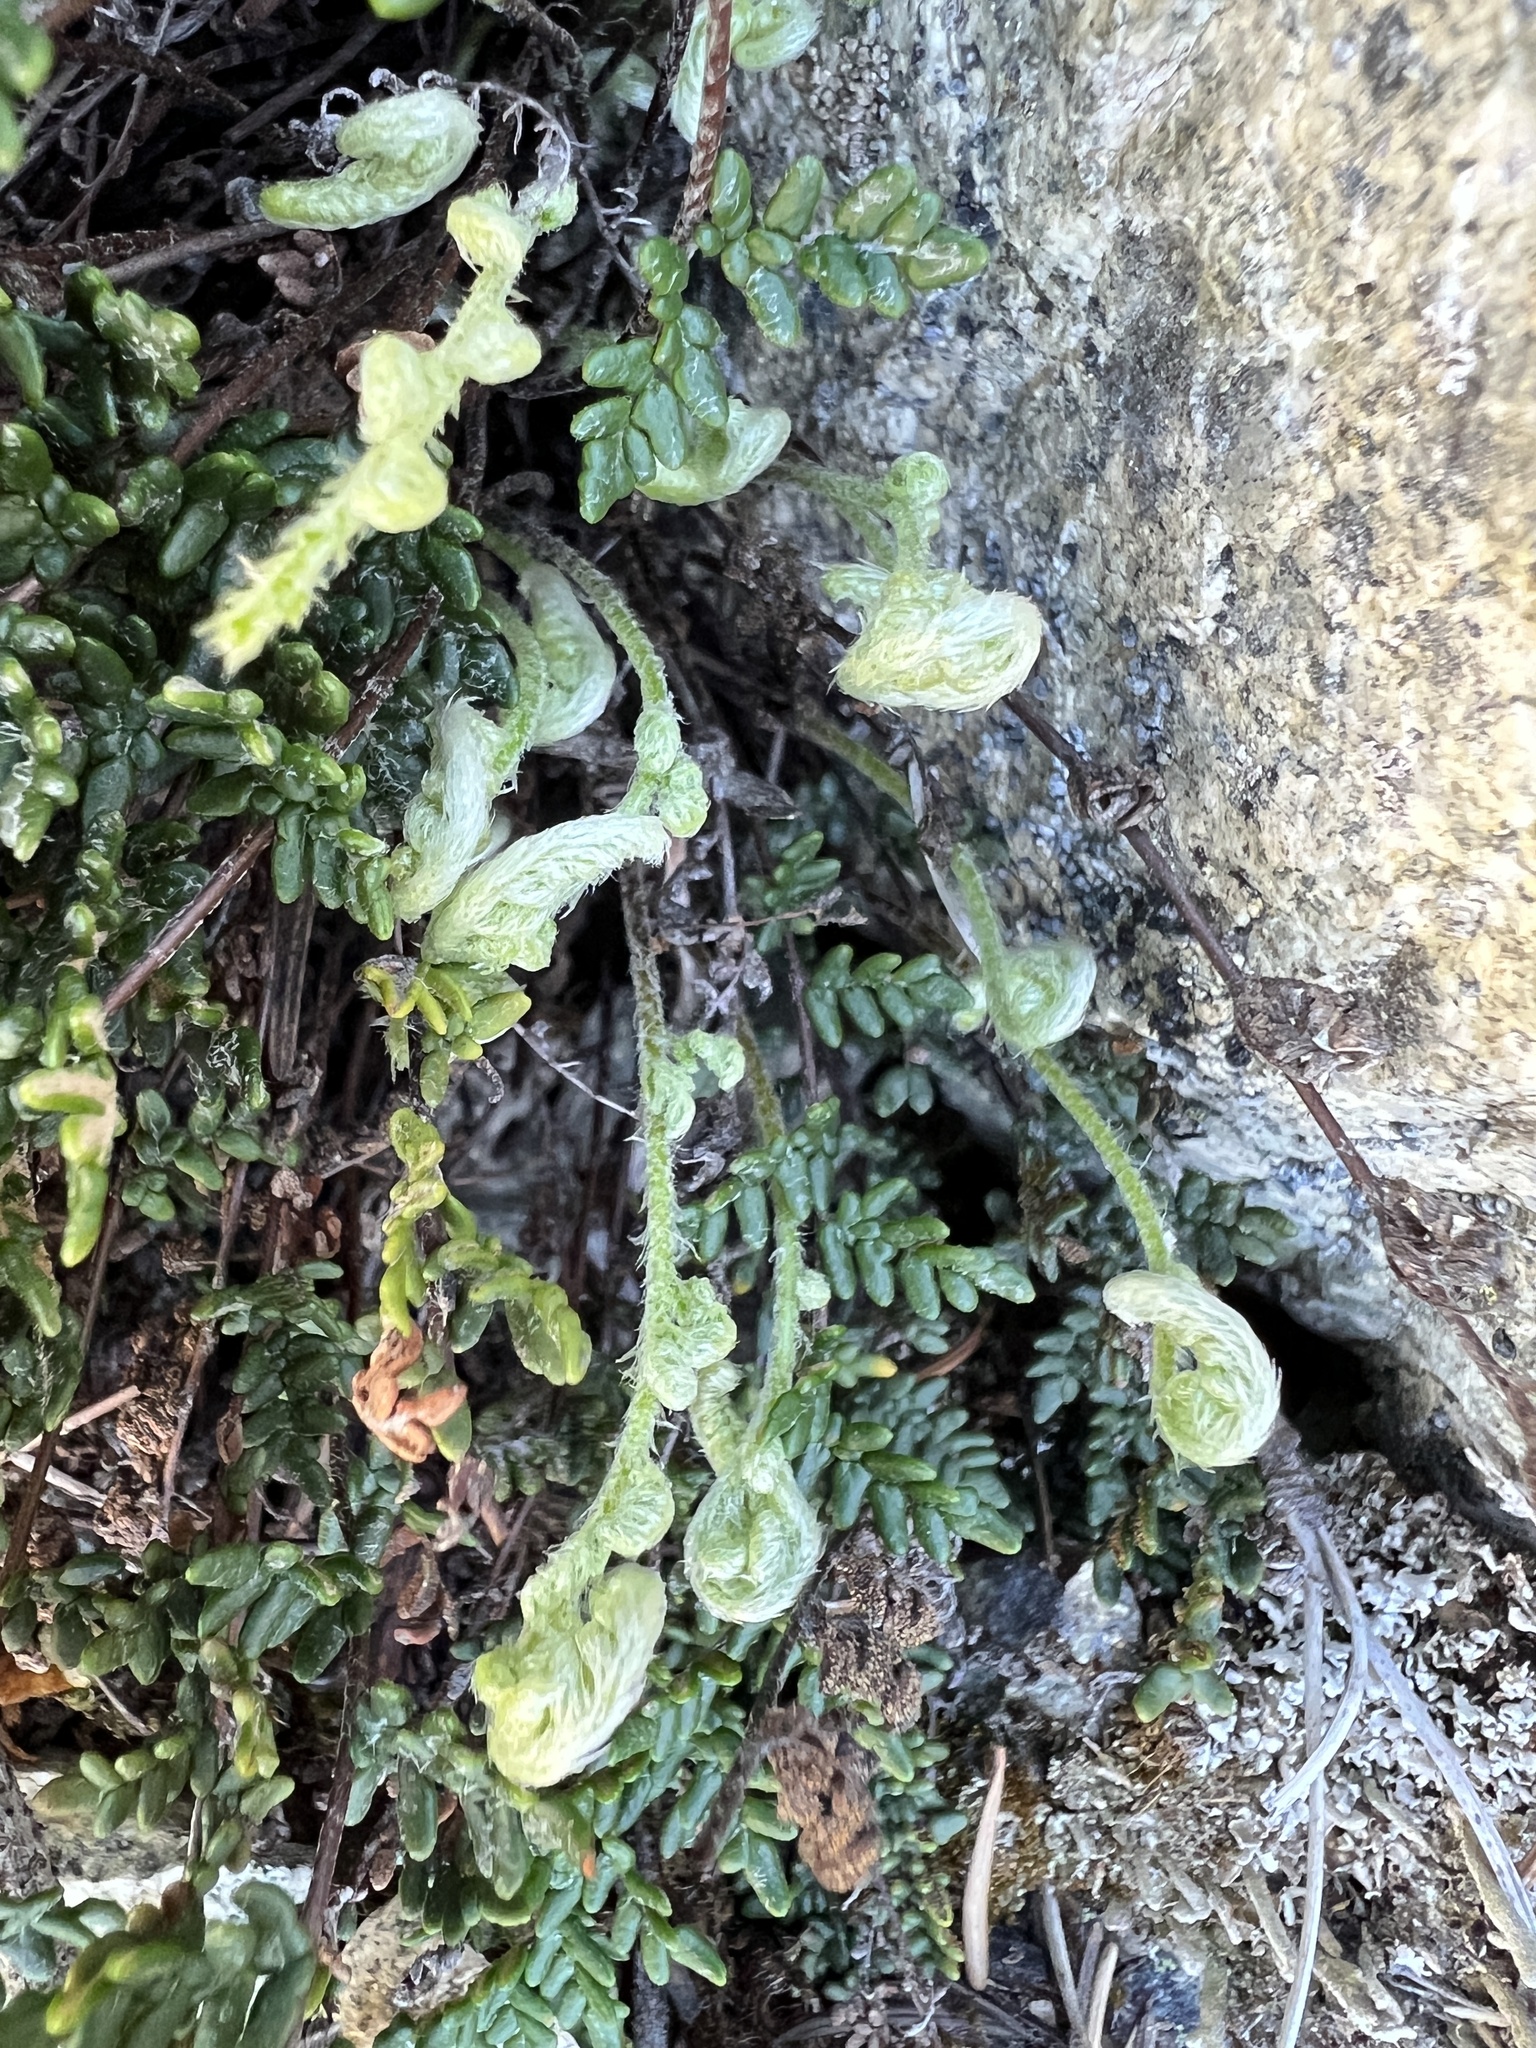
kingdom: Plantae
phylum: Tracheophyta
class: Polypodiopsida
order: Polypodiales
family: Pteridaceae
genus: Myriopteris
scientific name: Myriopteris gracillima
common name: Lace fern
